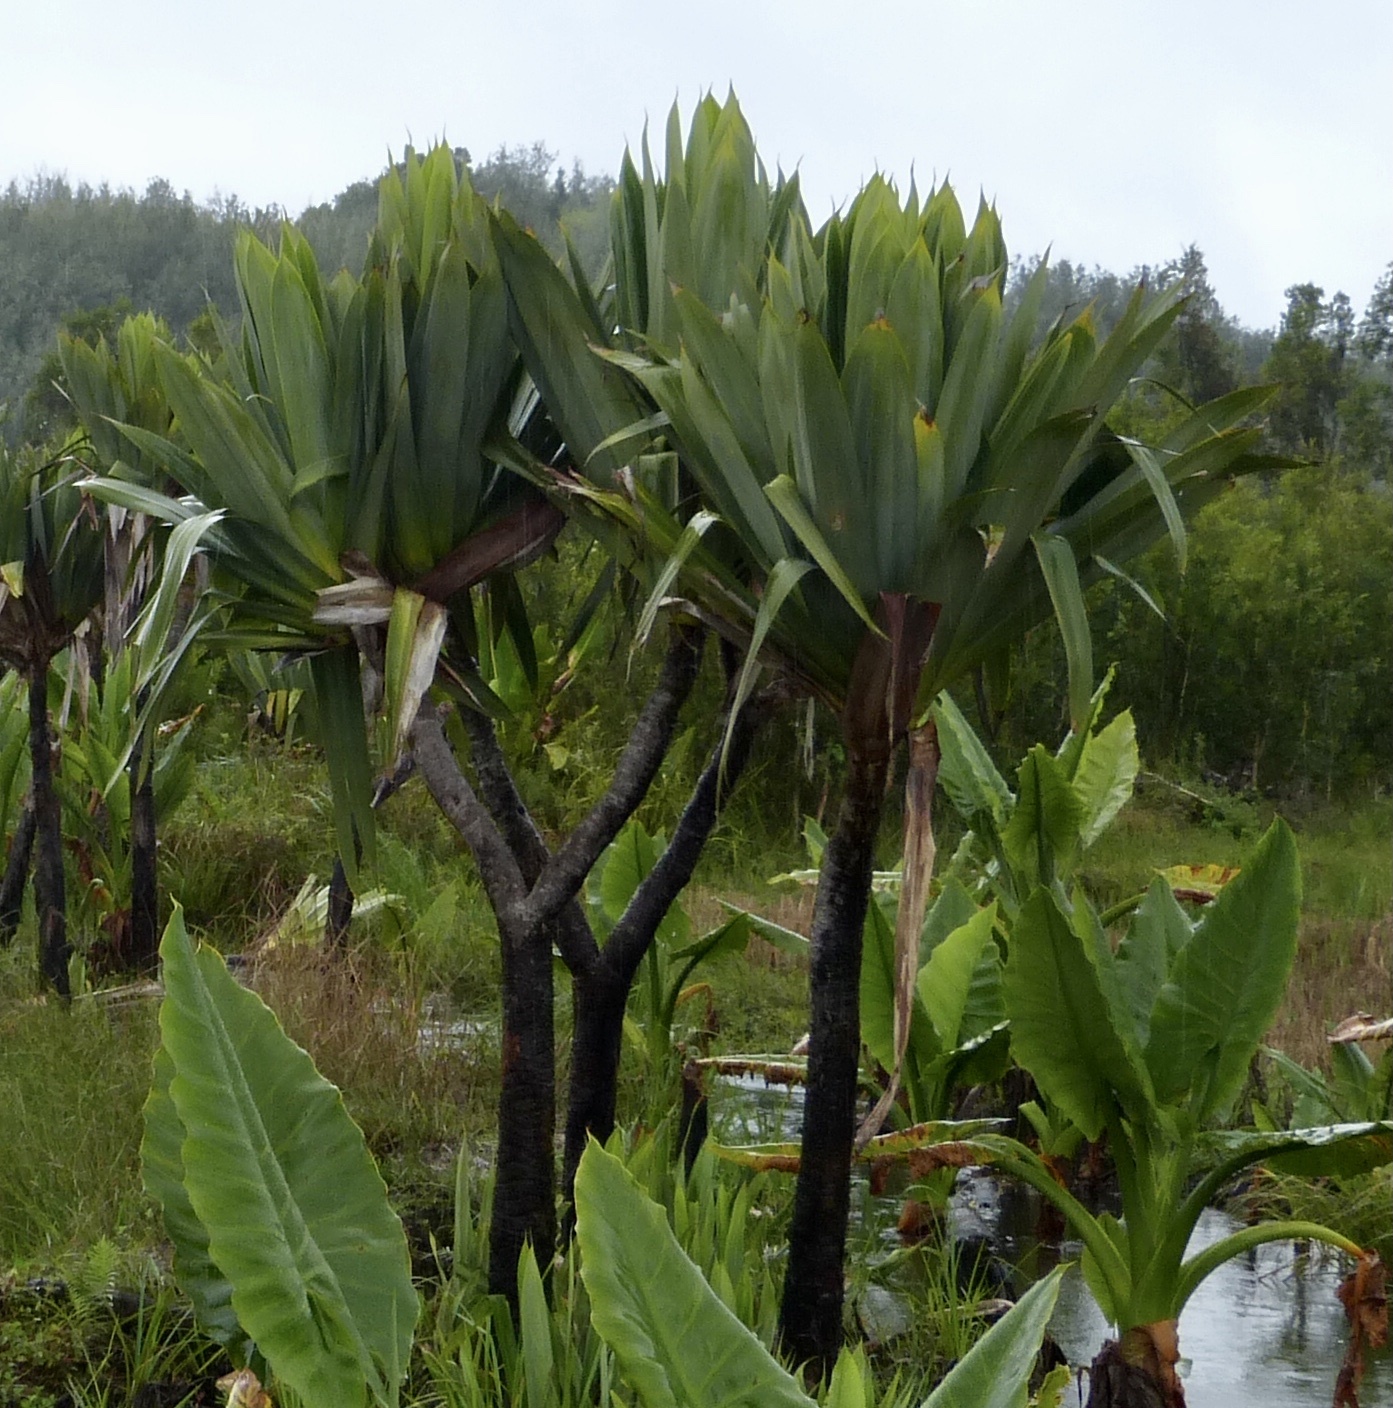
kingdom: Plantae
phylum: Tracheophyta
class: Liliopsida
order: Pandanales
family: Pandanaceae
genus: Pandanus
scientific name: Pandanus platyphyllus
